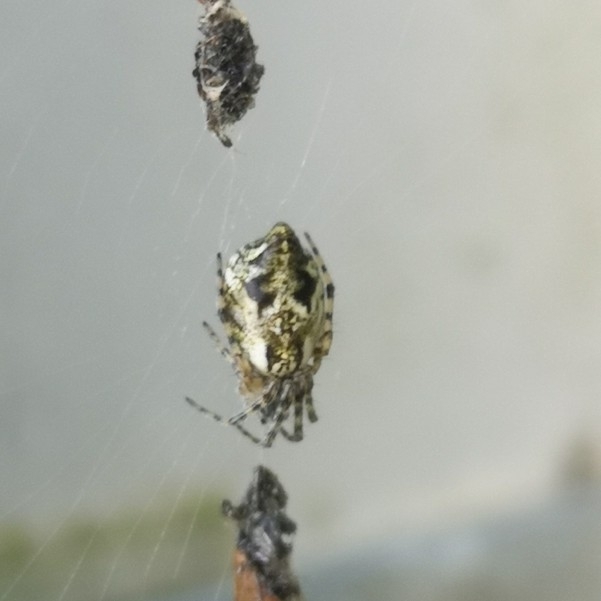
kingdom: Animalia
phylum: Arthropoda
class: Arachnida
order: Araneae
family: Araneidae
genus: Cyclosa
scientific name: Cyclosa conica
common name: Conical trashline orbweaver
